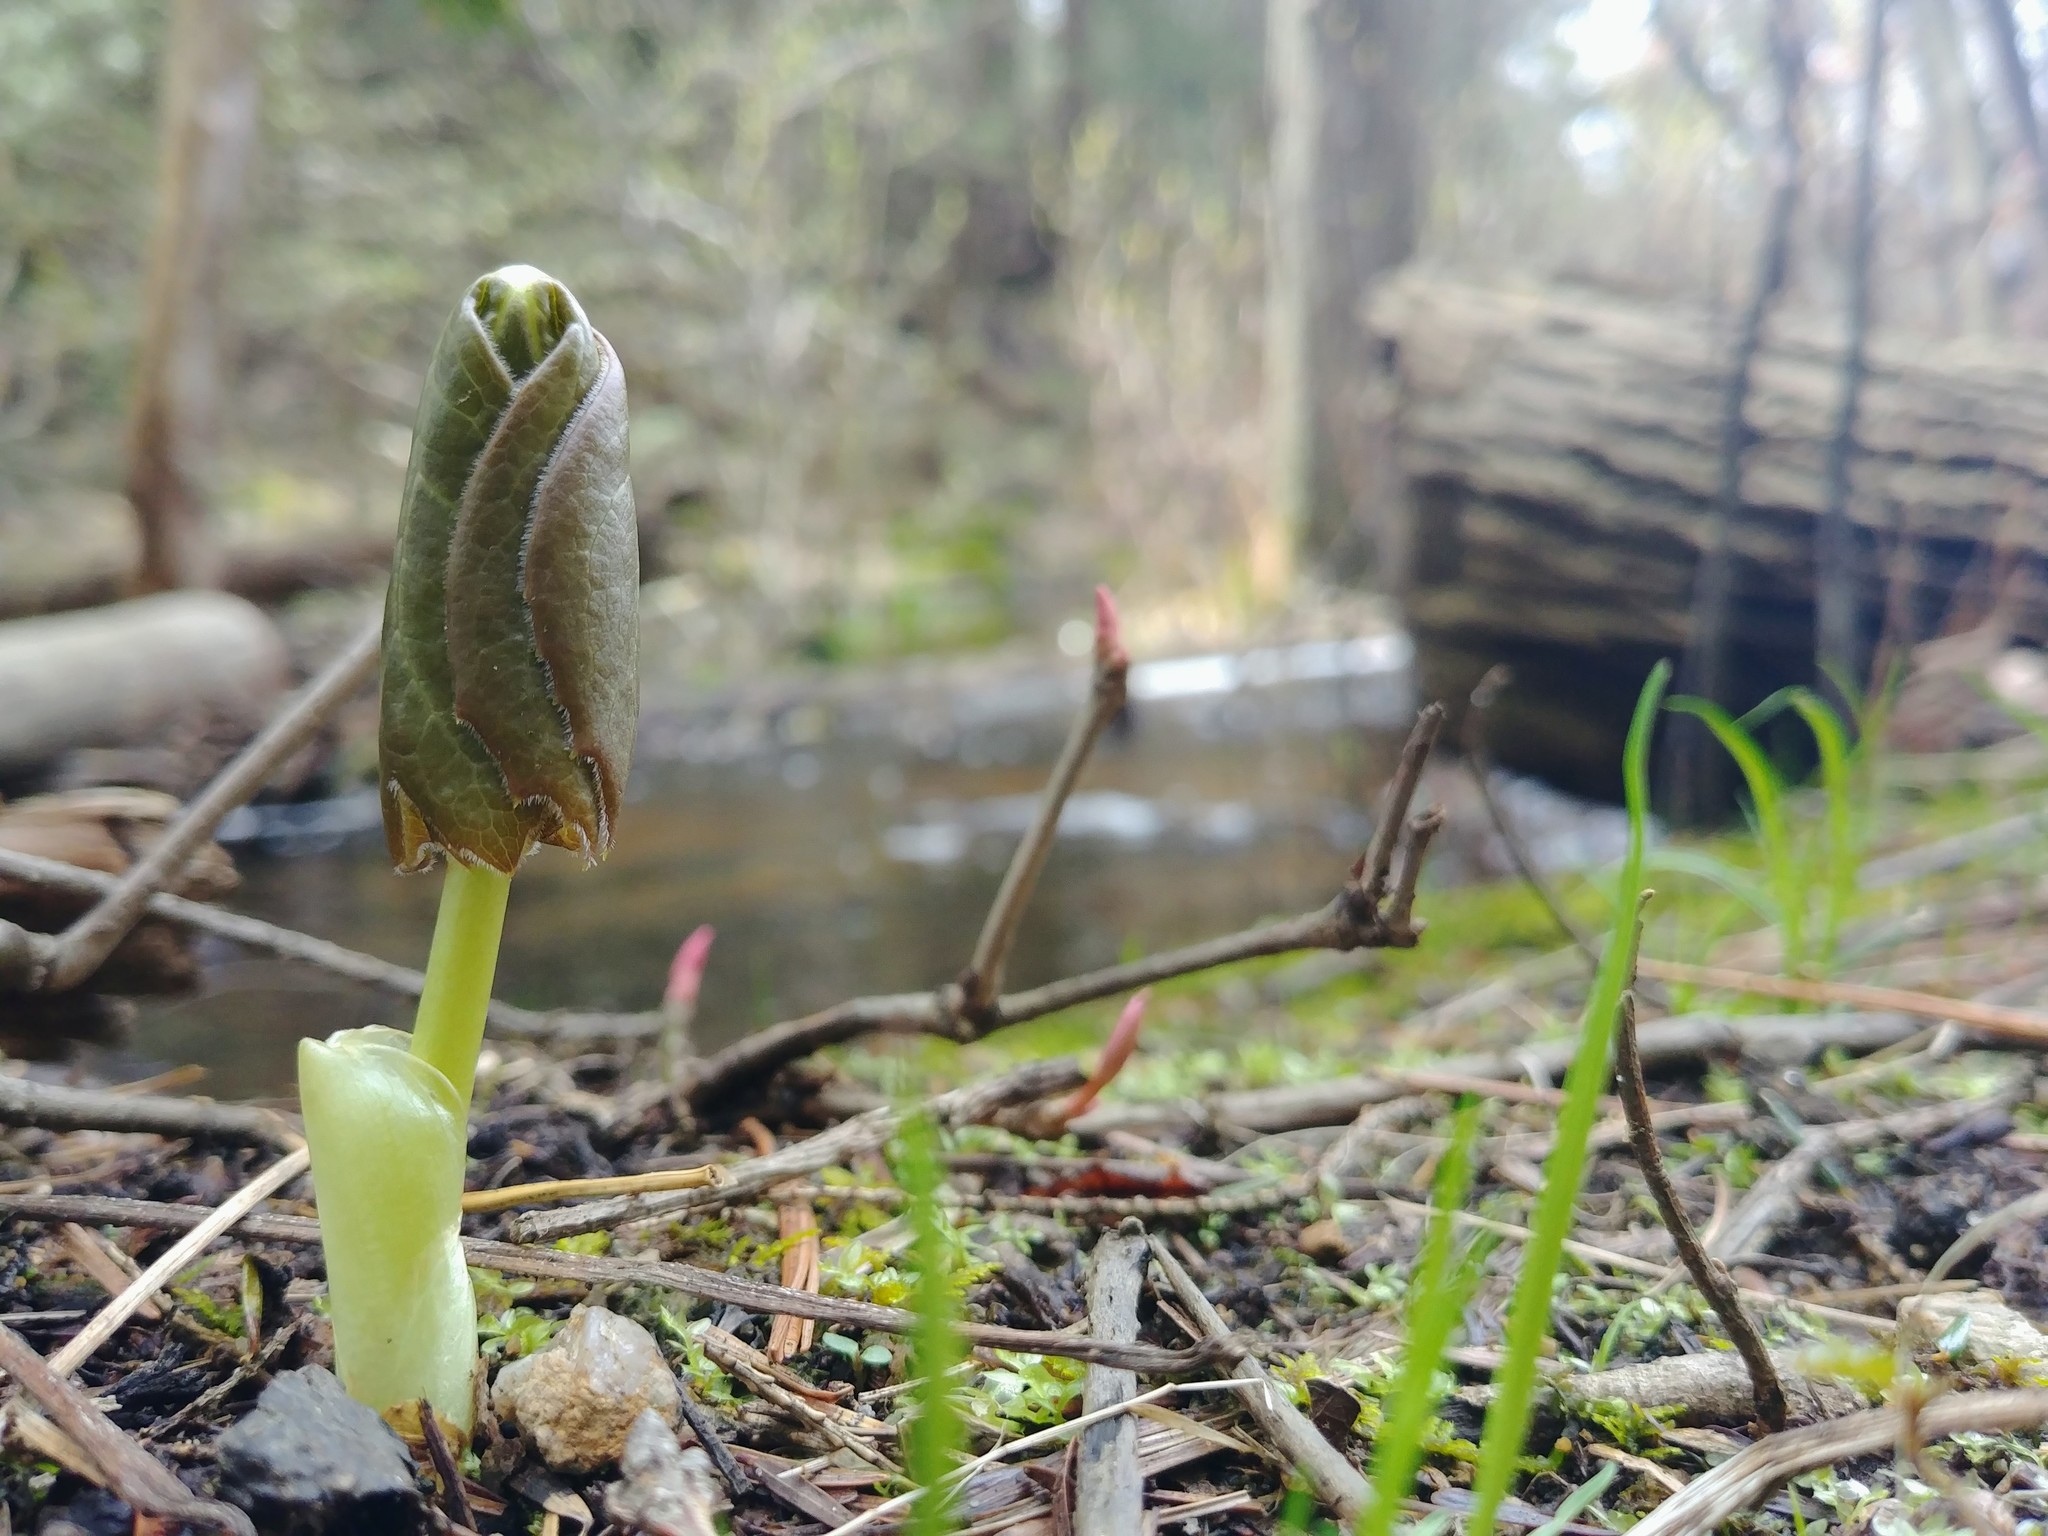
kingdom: Plantae
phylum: Tracheophyta
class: Magnoliopsida
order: Ranunculales
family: Berberidaceae
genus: Podophyllum
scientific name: Podophyllum peltatum
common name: Wild mandrake
